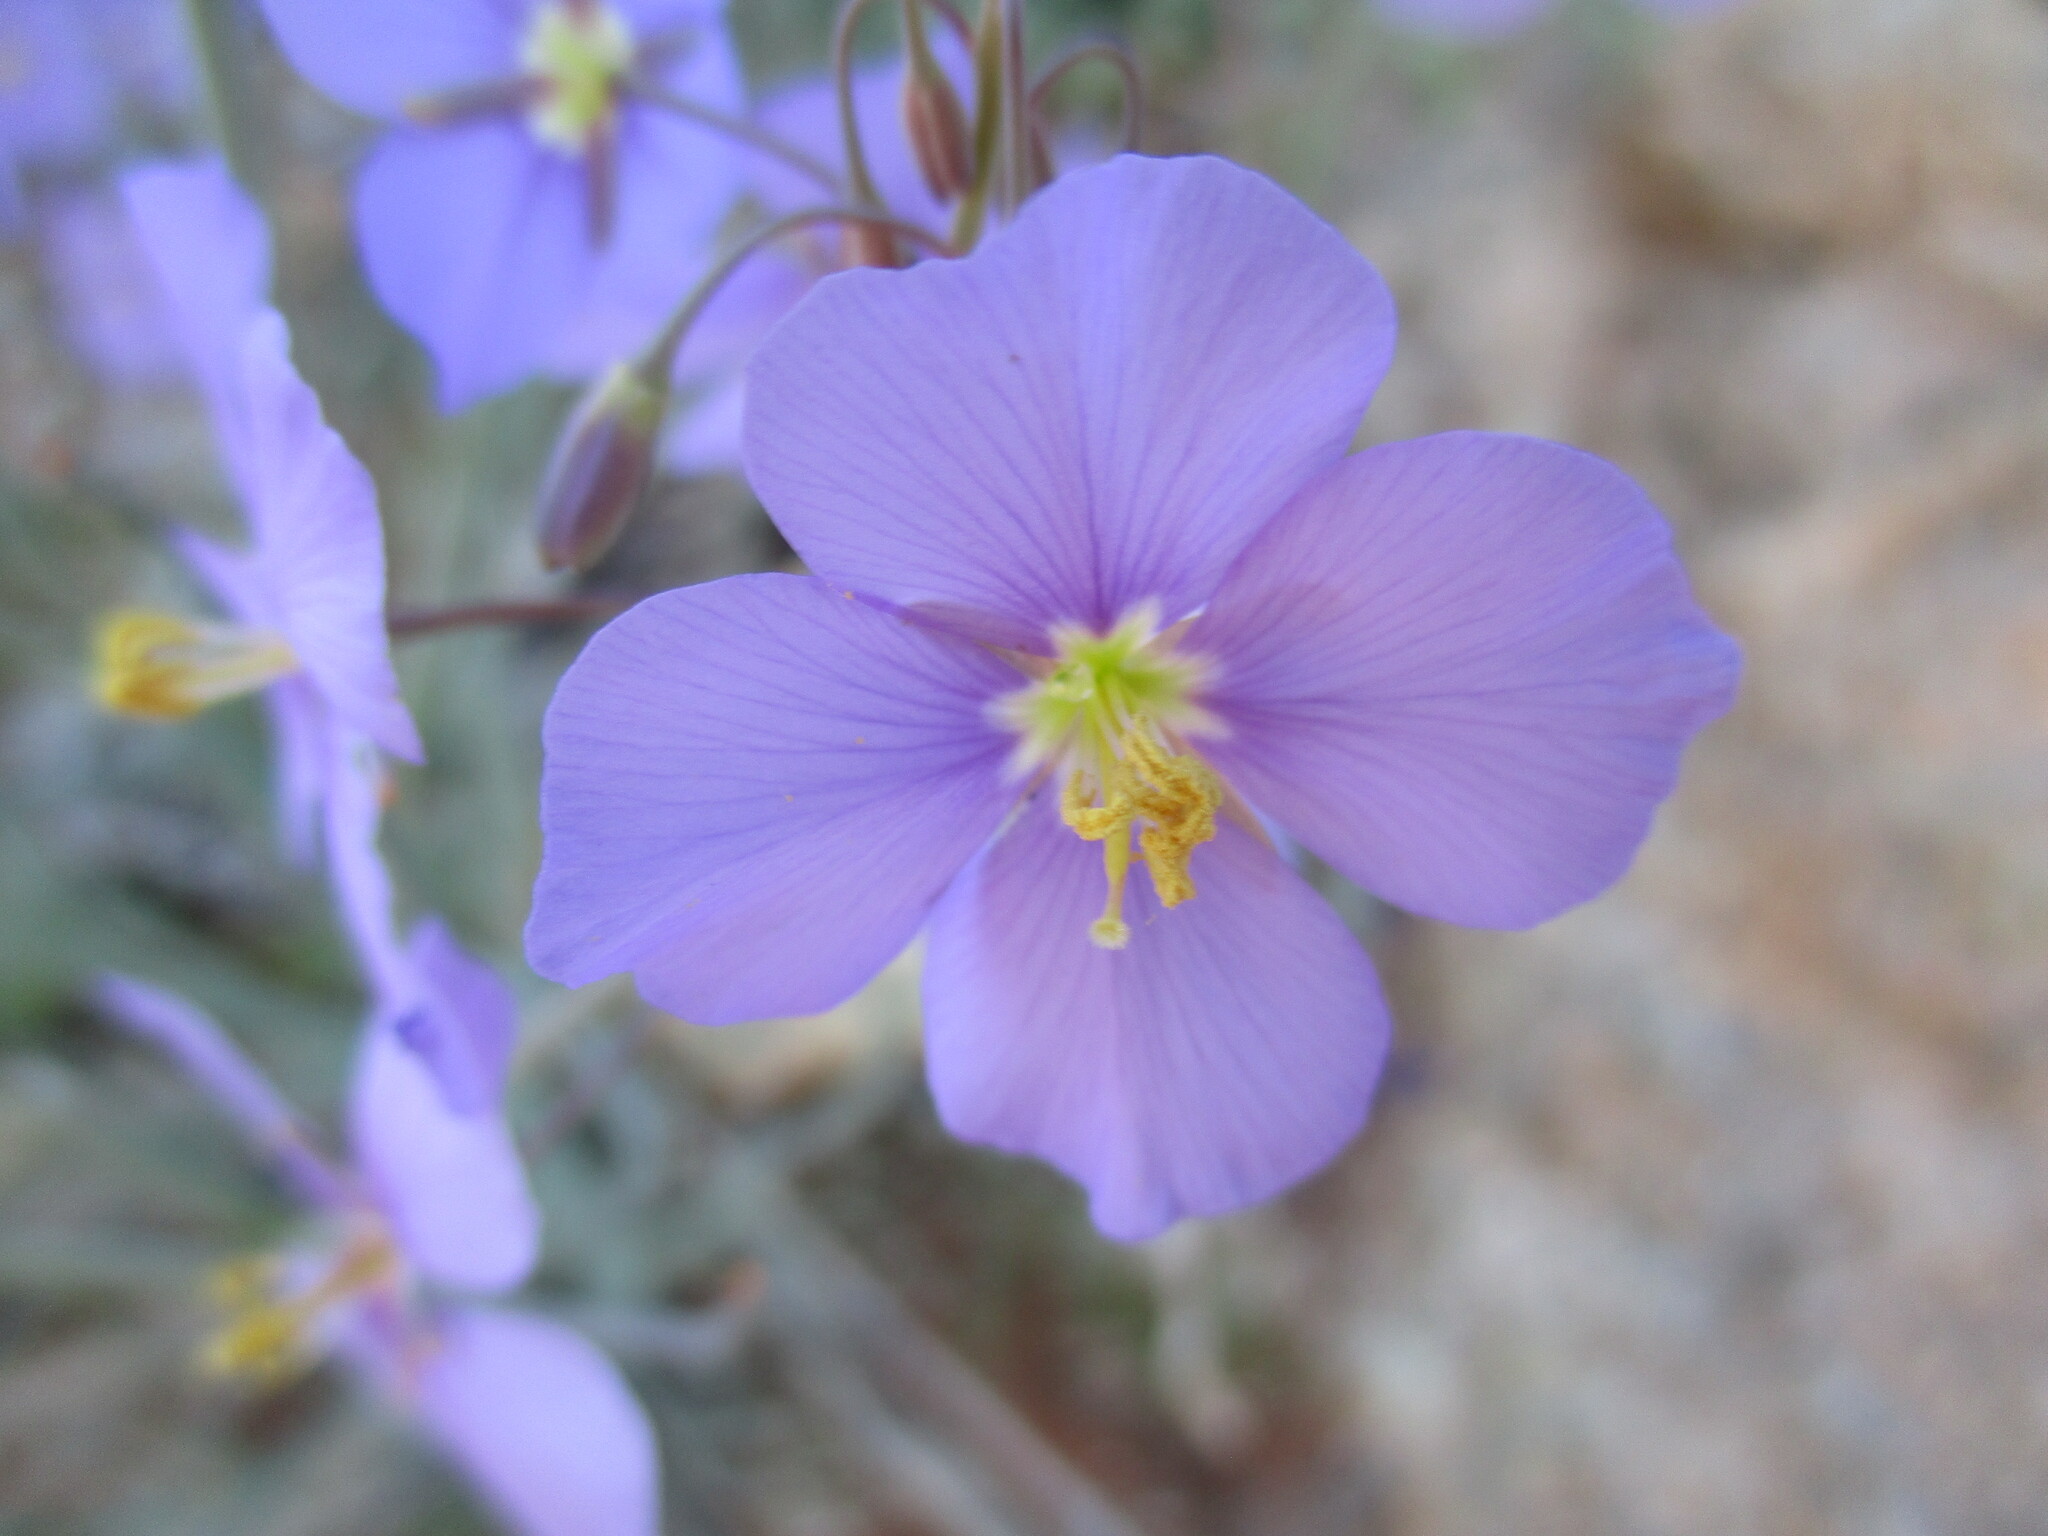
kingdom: Plantae
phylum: Tracheophyta
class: Magnoliopsida
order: Brassicales
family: Brassicaceae
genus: Heliophila
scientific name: Heliophila trifurca
